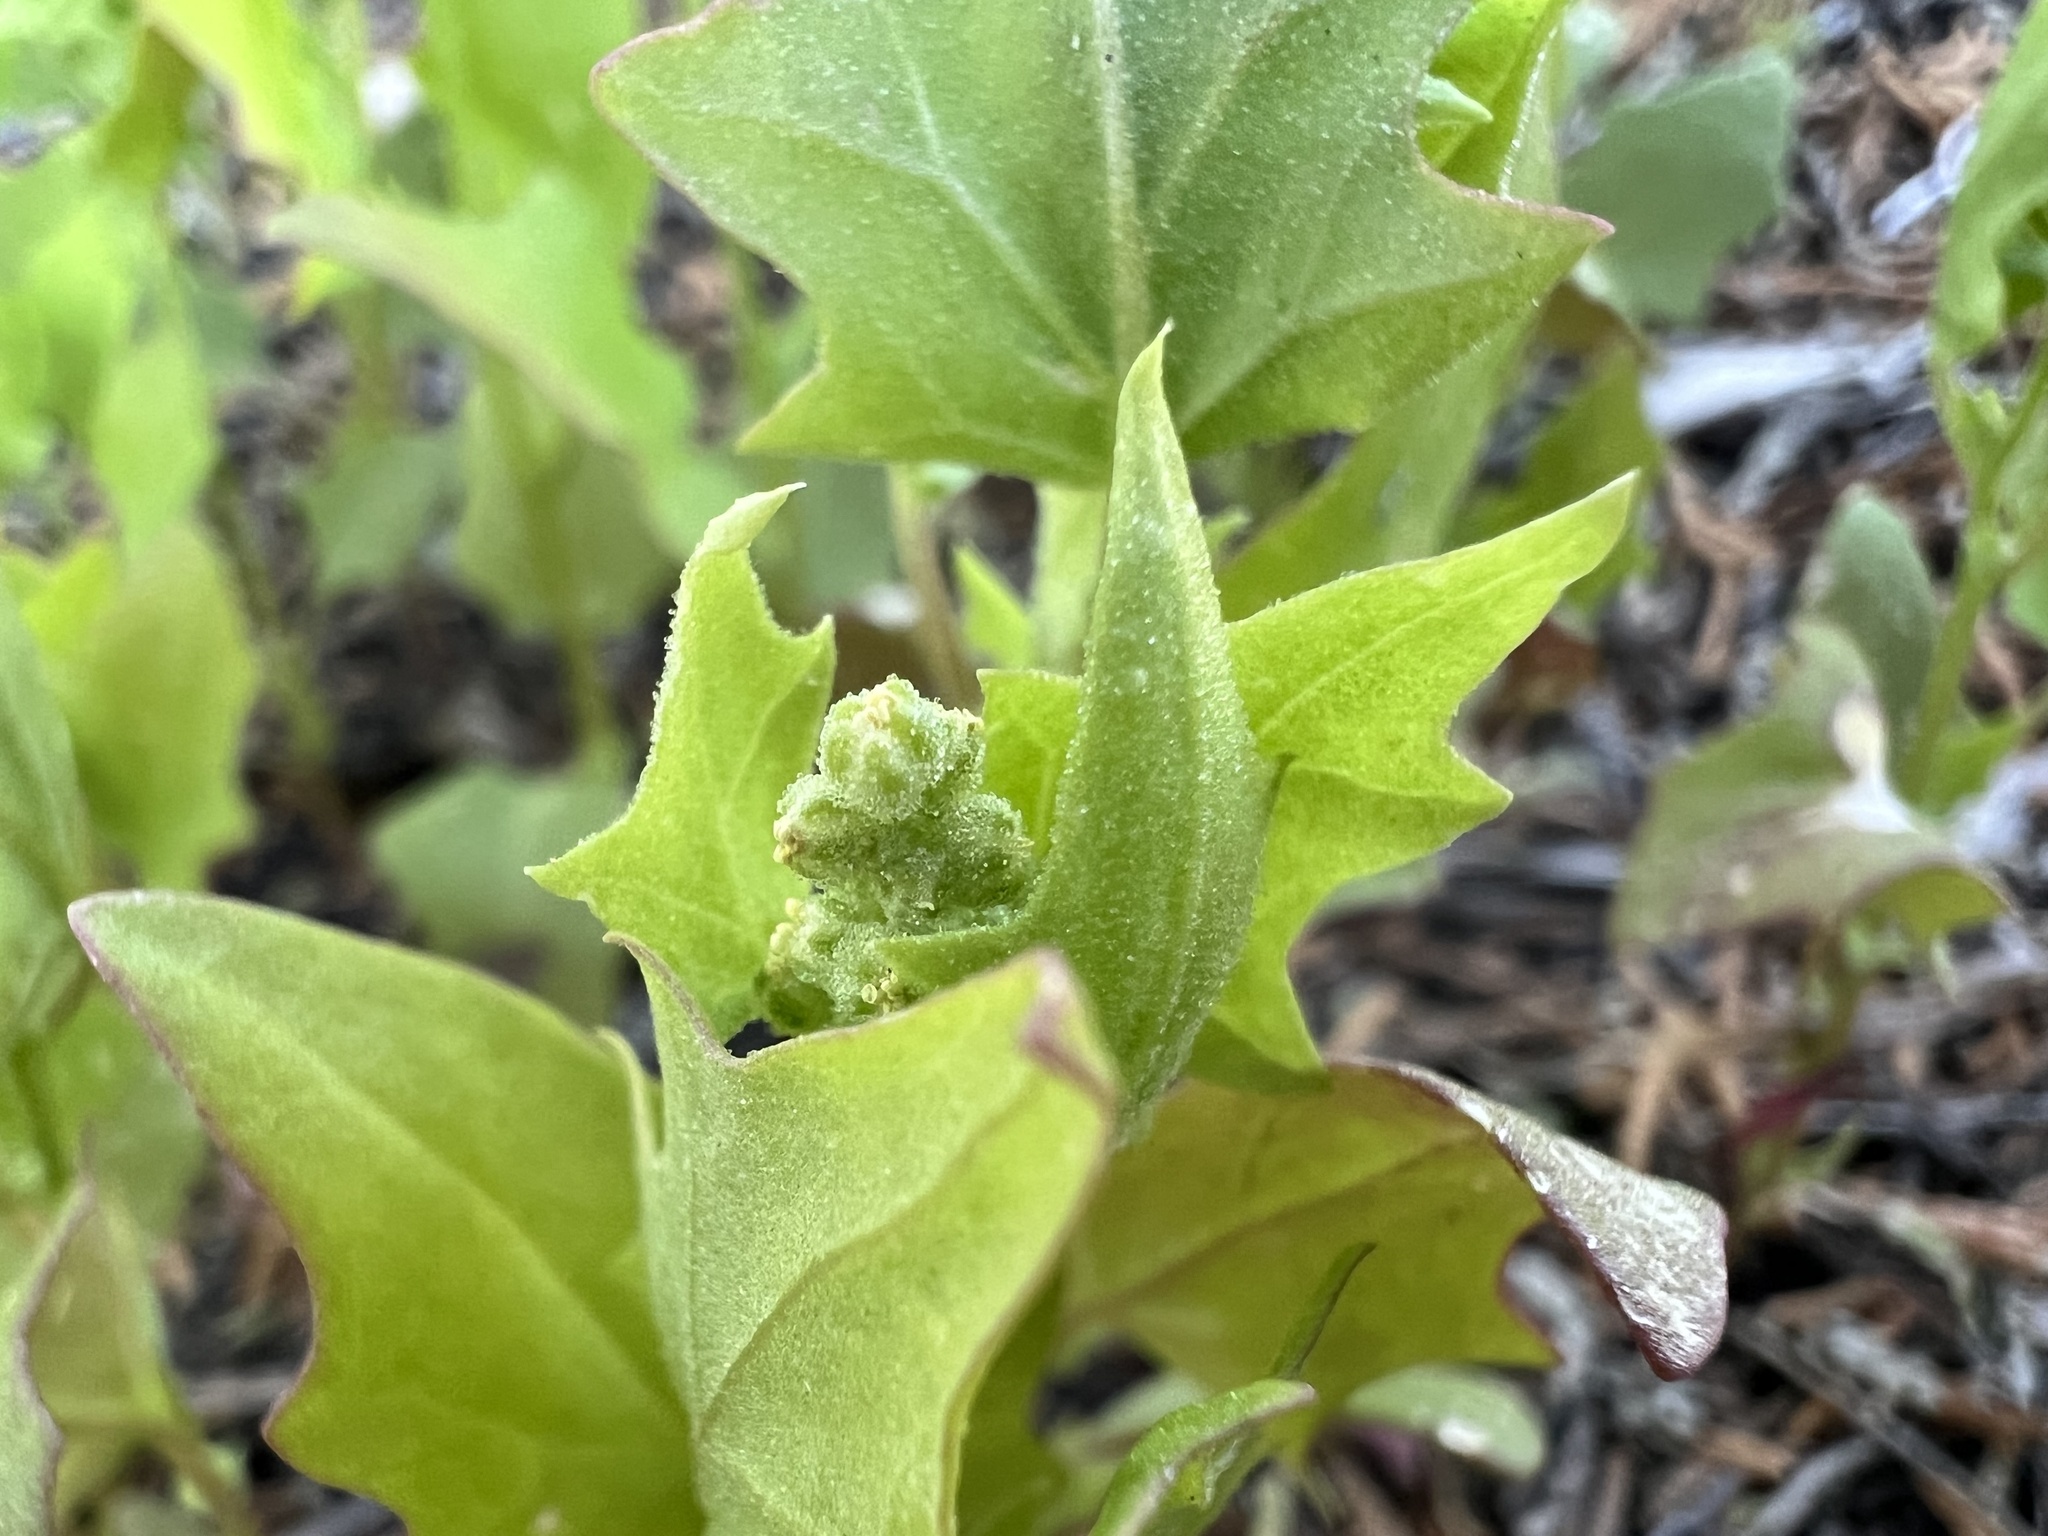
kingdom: Plantae
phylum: Tracheophyta
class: Magnoliopsida
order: Caryophyllales
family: Amaranthaceae
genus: Chenopodiastrum
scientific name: Chenopodiastrum simplex
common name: Large-seed goosefoot
